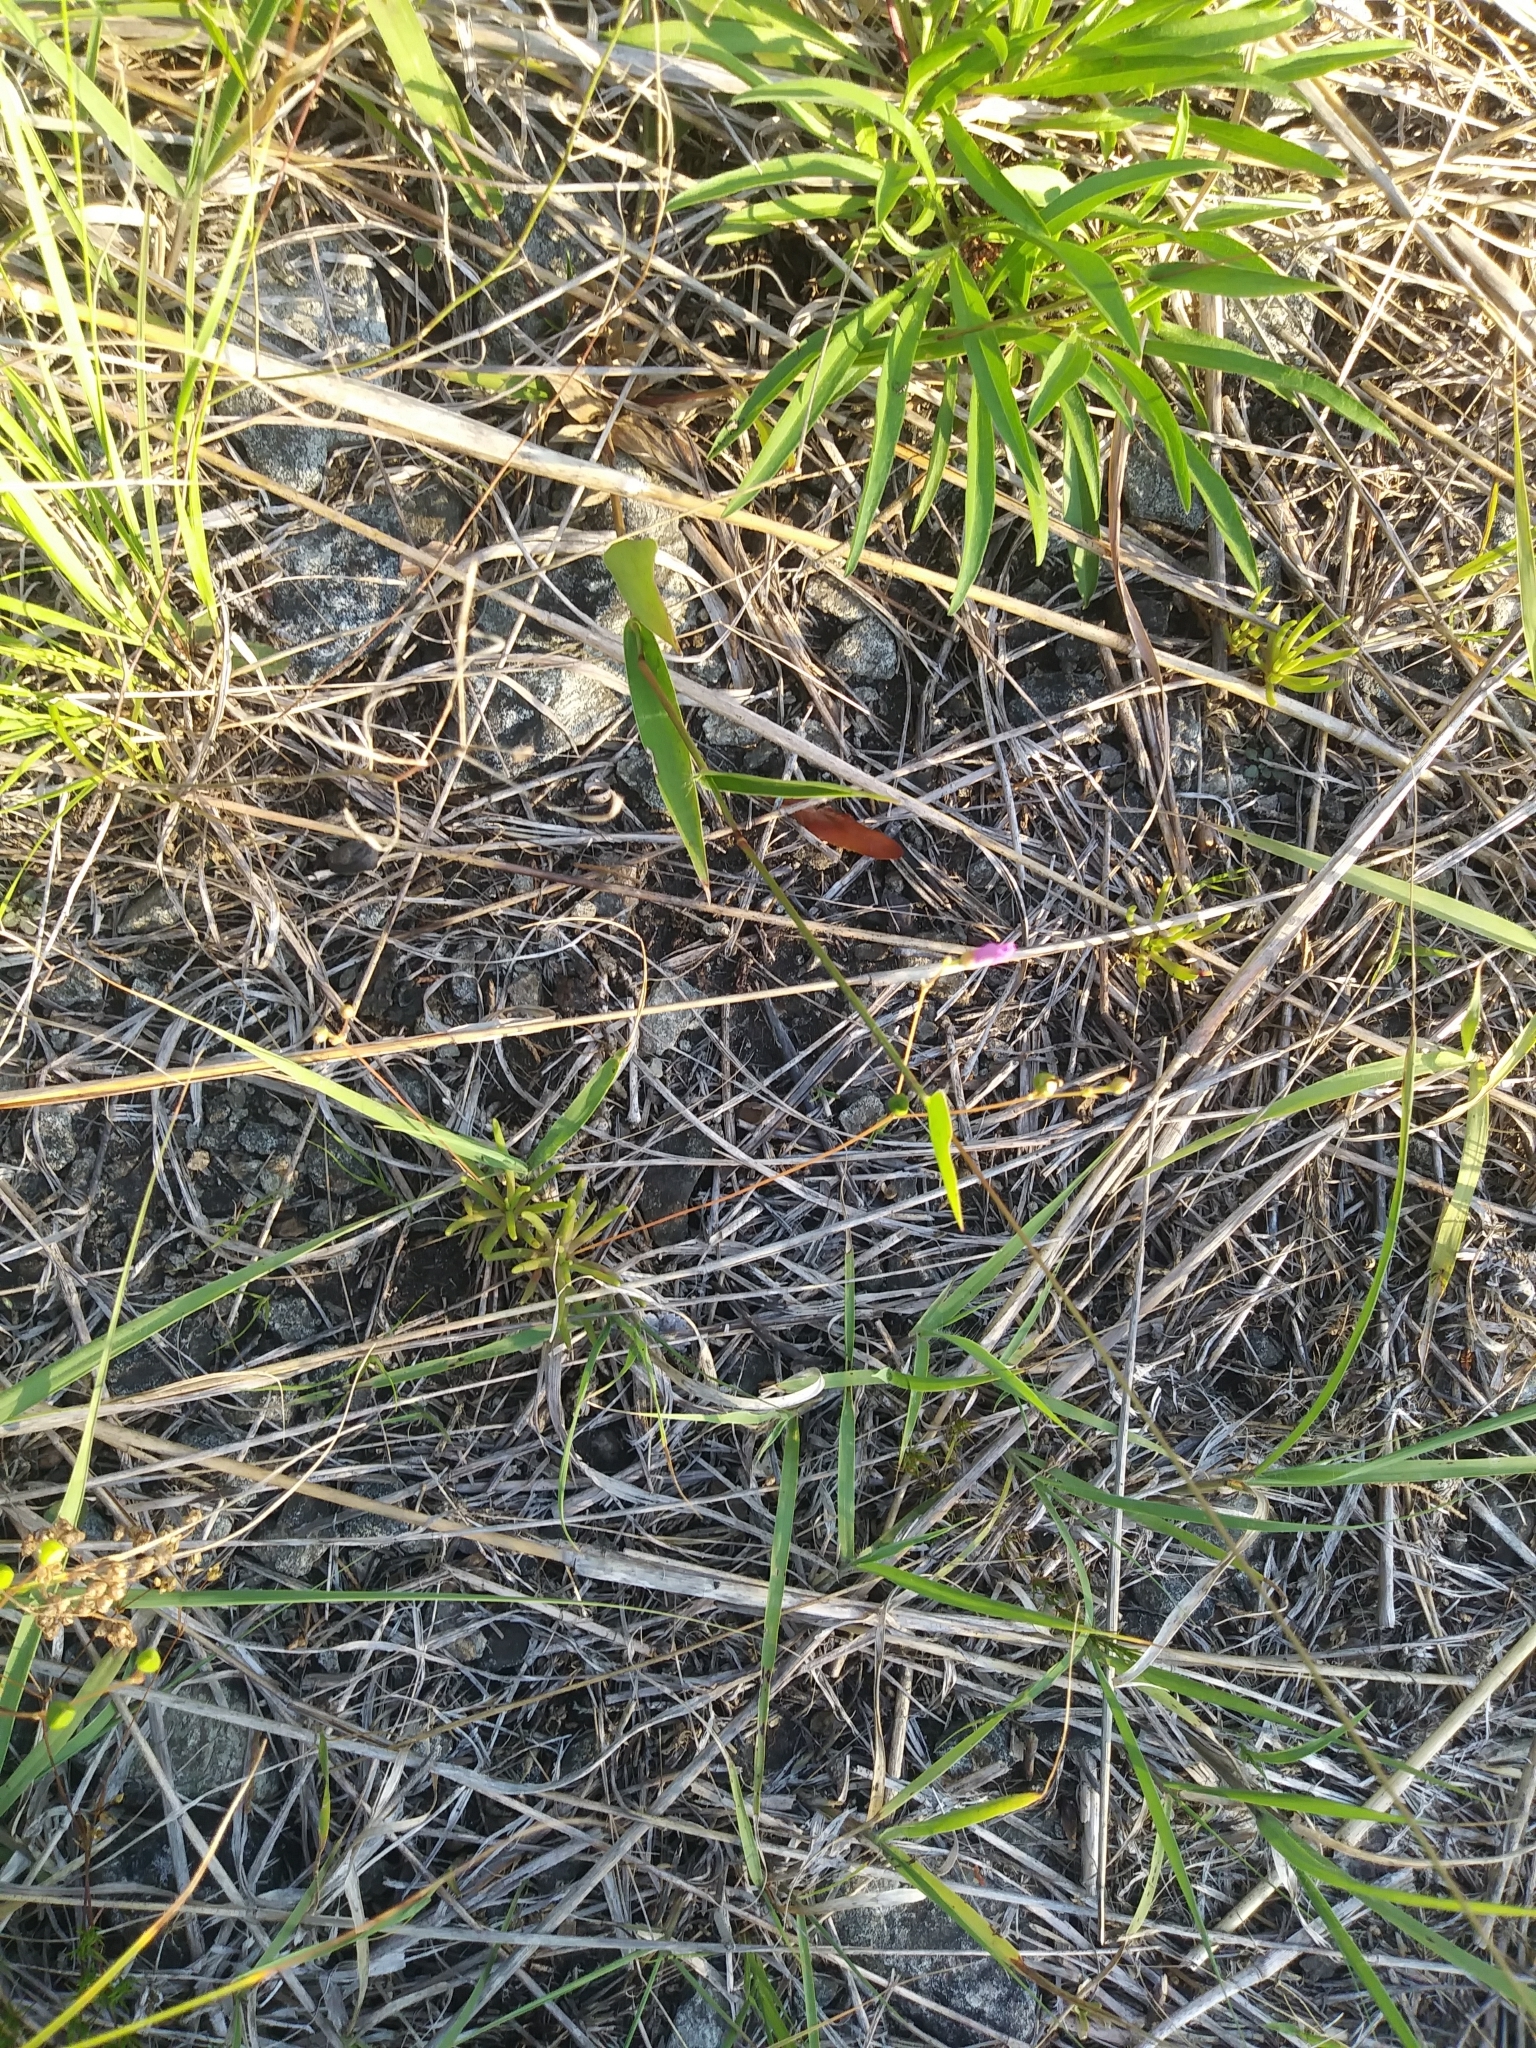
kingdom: Plantae
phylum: Tracheophyta
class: Magnoliopsida
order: Caryophyllales
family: Montiaceae
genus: Phemeranthus
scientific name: Phemeranthus teretifolius
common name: Quill fameflower
